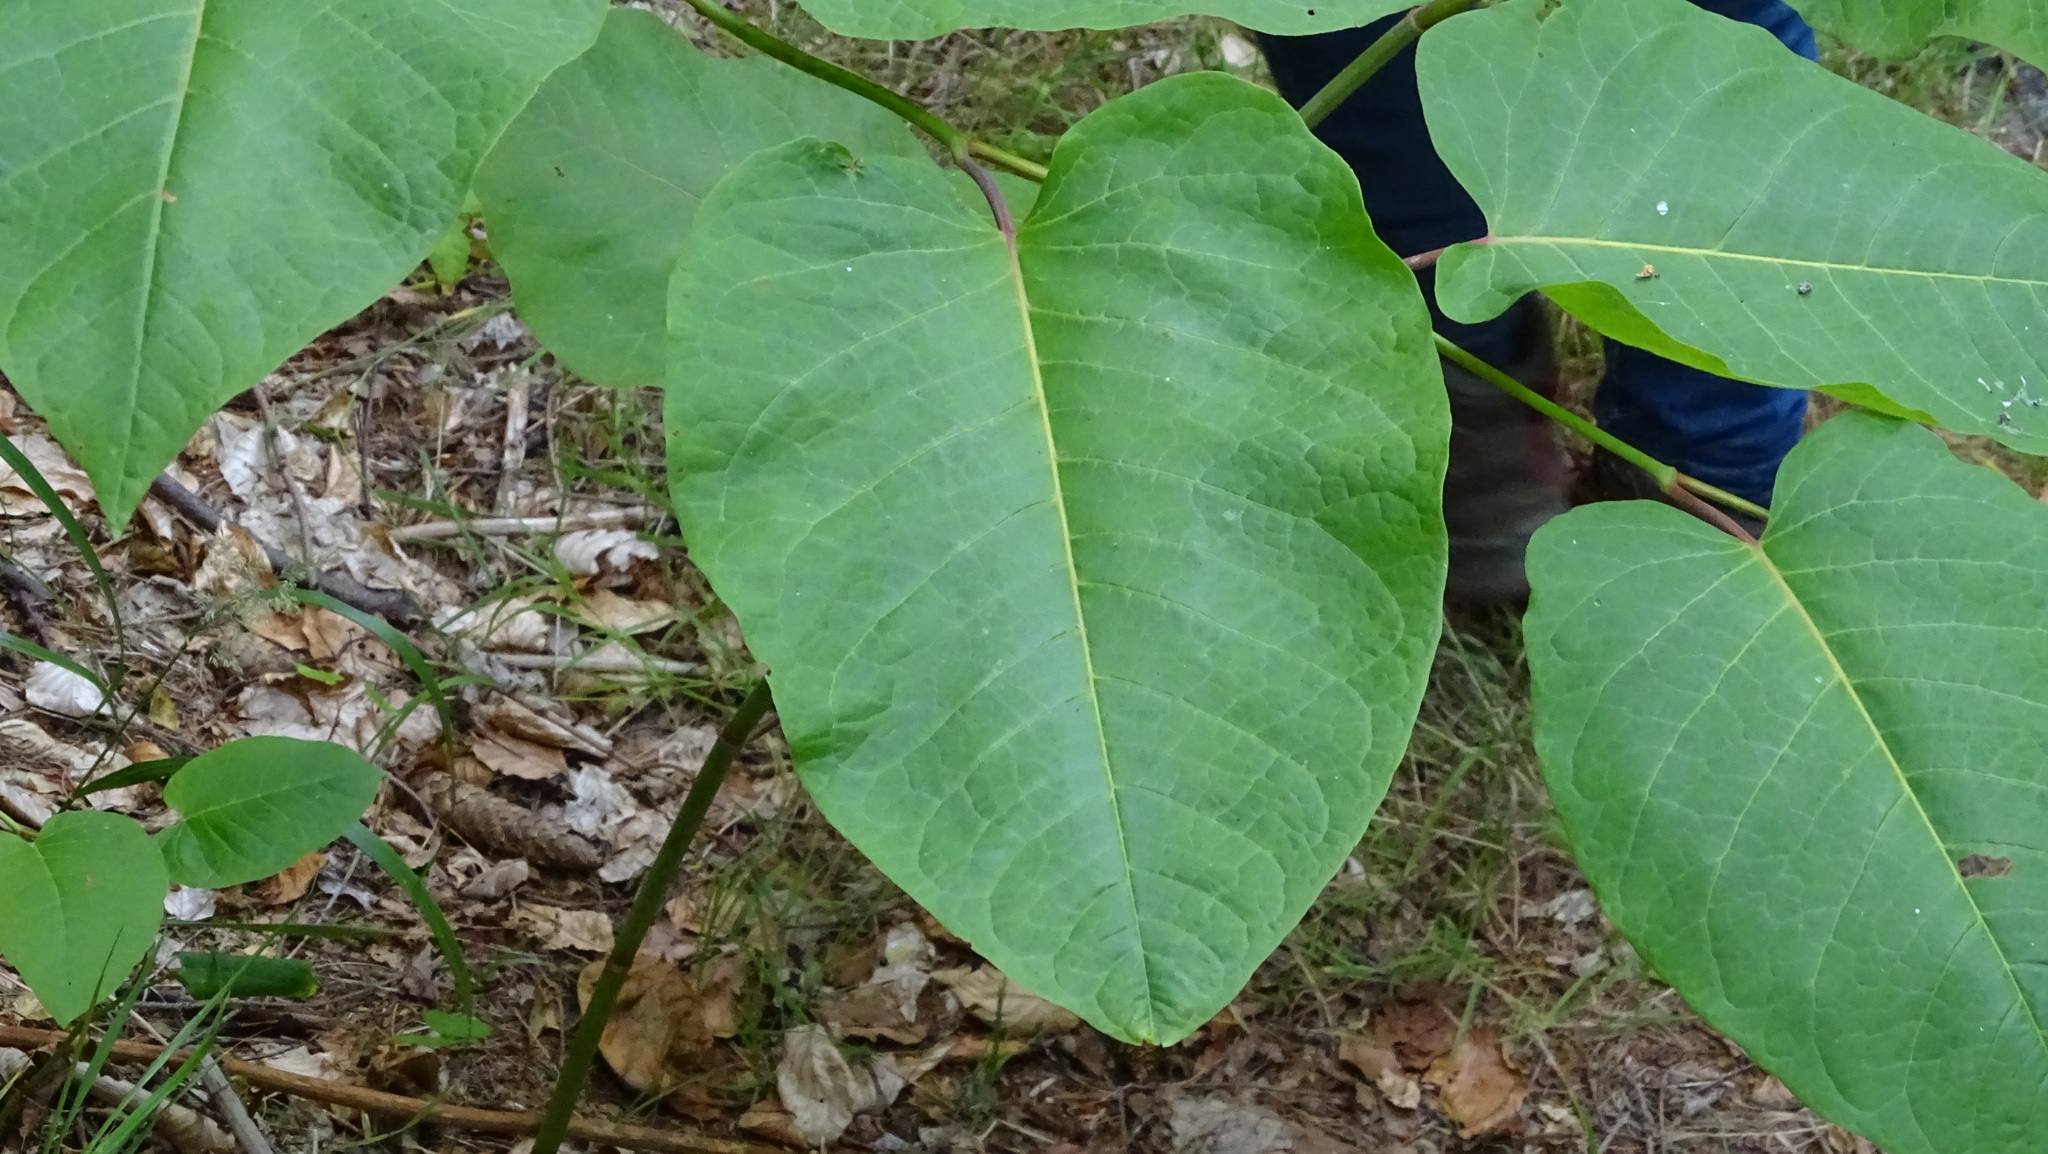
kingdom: Plantae
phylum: Tracheophyta
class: Magnoliopsida
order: Caryophyllales
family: Polygonaceae
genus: Reynoutria
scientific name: Reynoutria sachalinensis
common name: Giant knotweed
